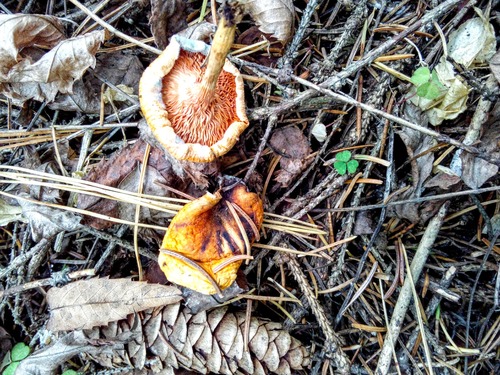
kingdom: Fungi
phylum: Basidiomycota
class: Agaricomycetes
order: Boletales
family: Hygrophoropsidaceae
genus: Hygrophoropsis
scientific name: Hygrophoropsis aurantiaca
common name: False chanterelle
